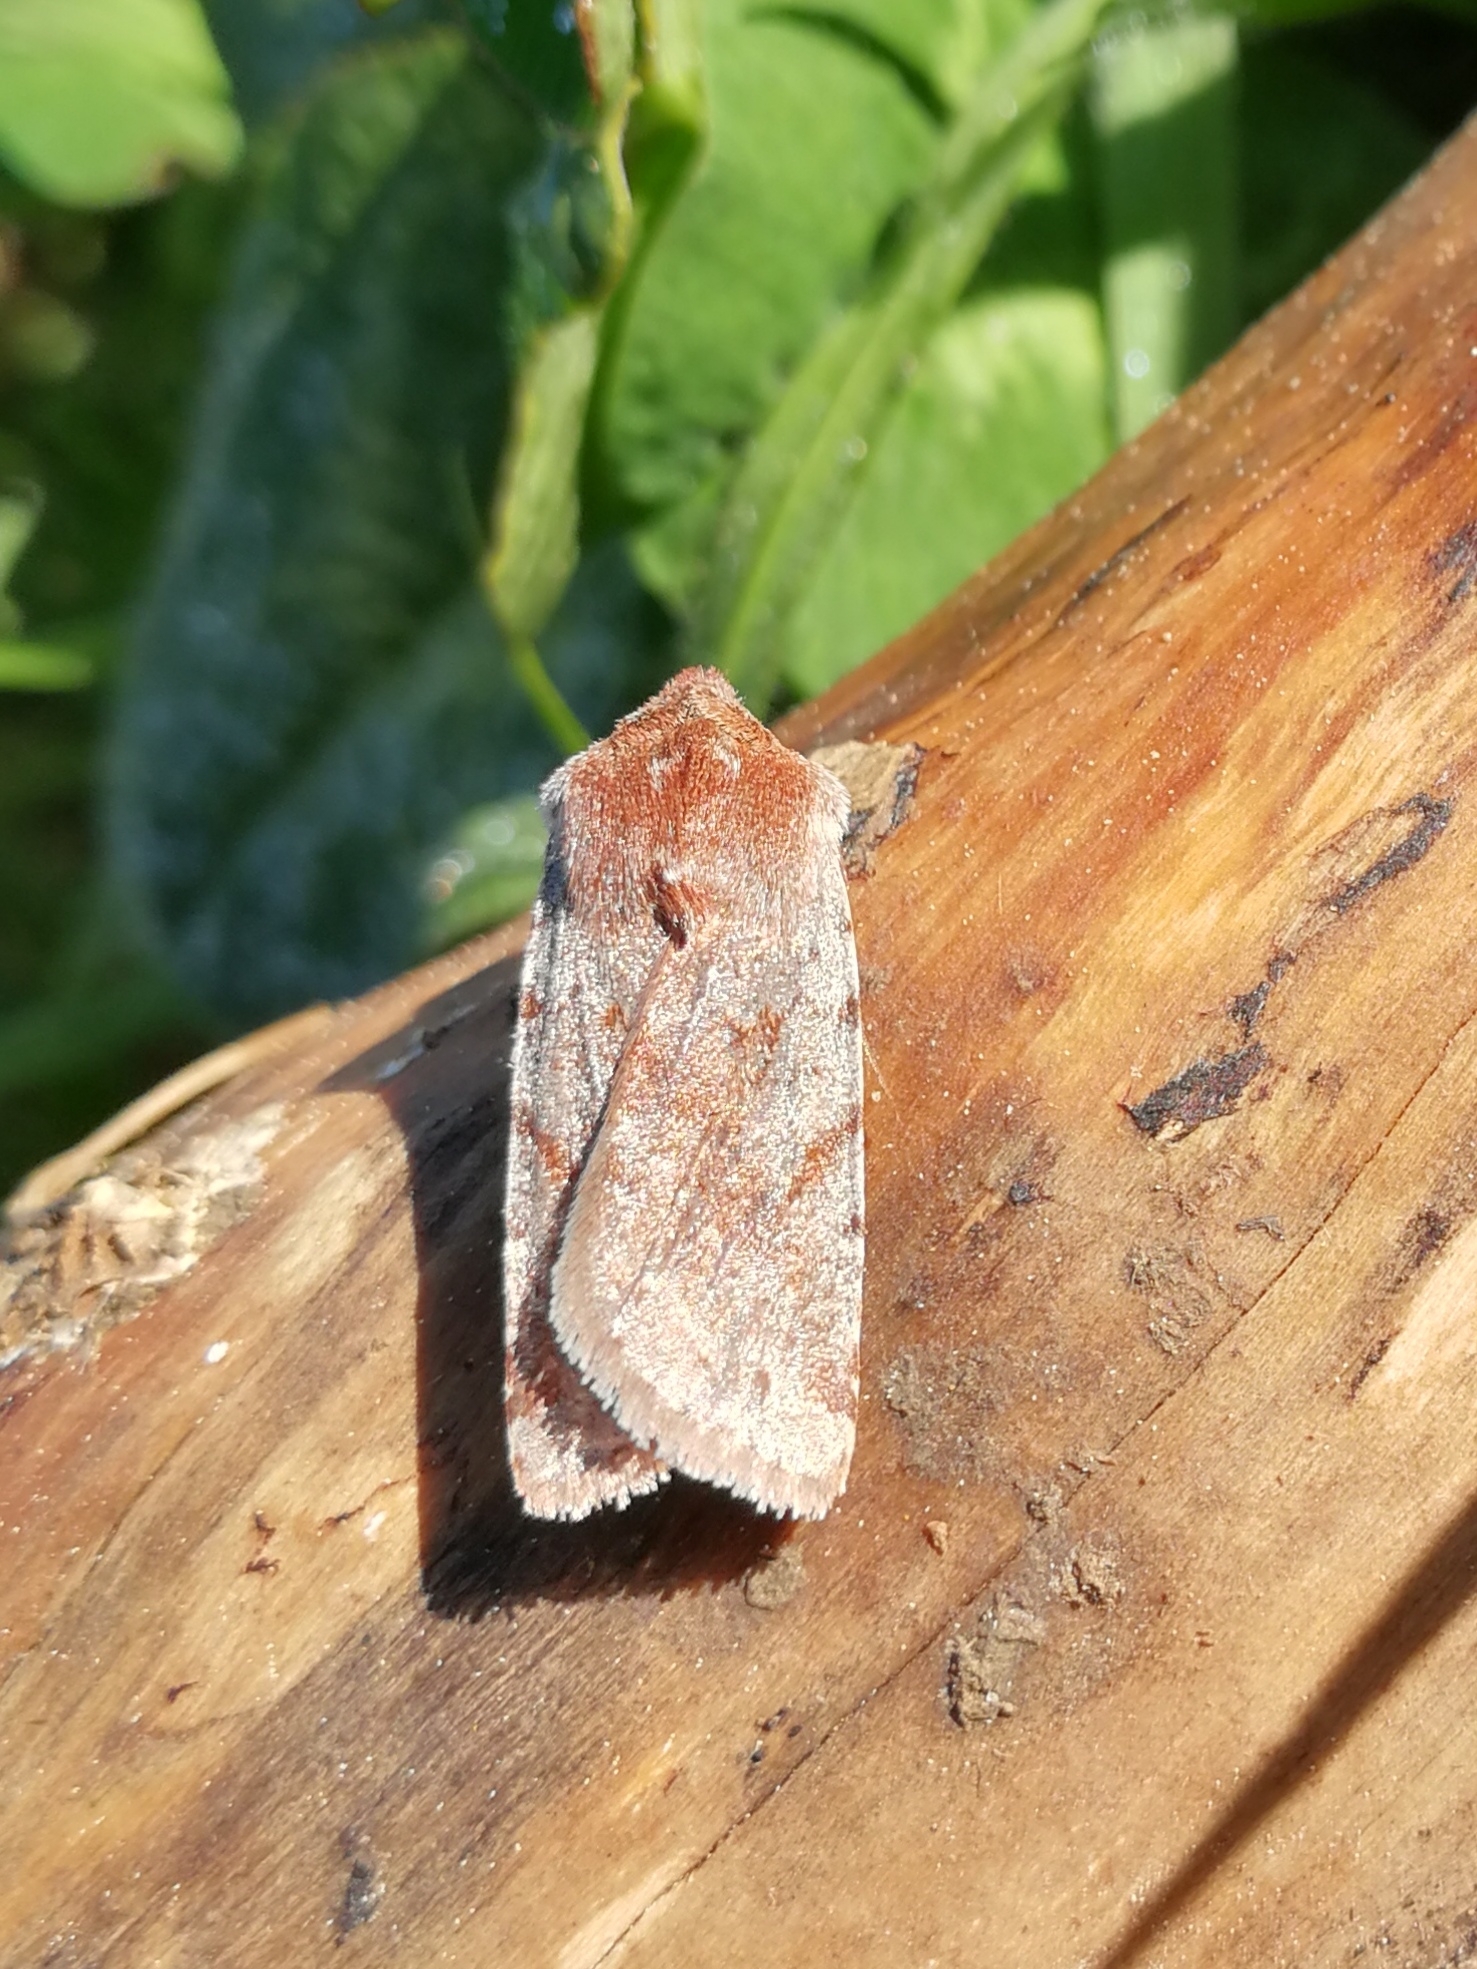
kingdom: Animalia
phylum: Arthropoda
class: Insecta
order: Lepidoptera
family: Noctuidae
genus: Cerastis
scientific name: Cerastis rubricosa
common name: Red chestnut
